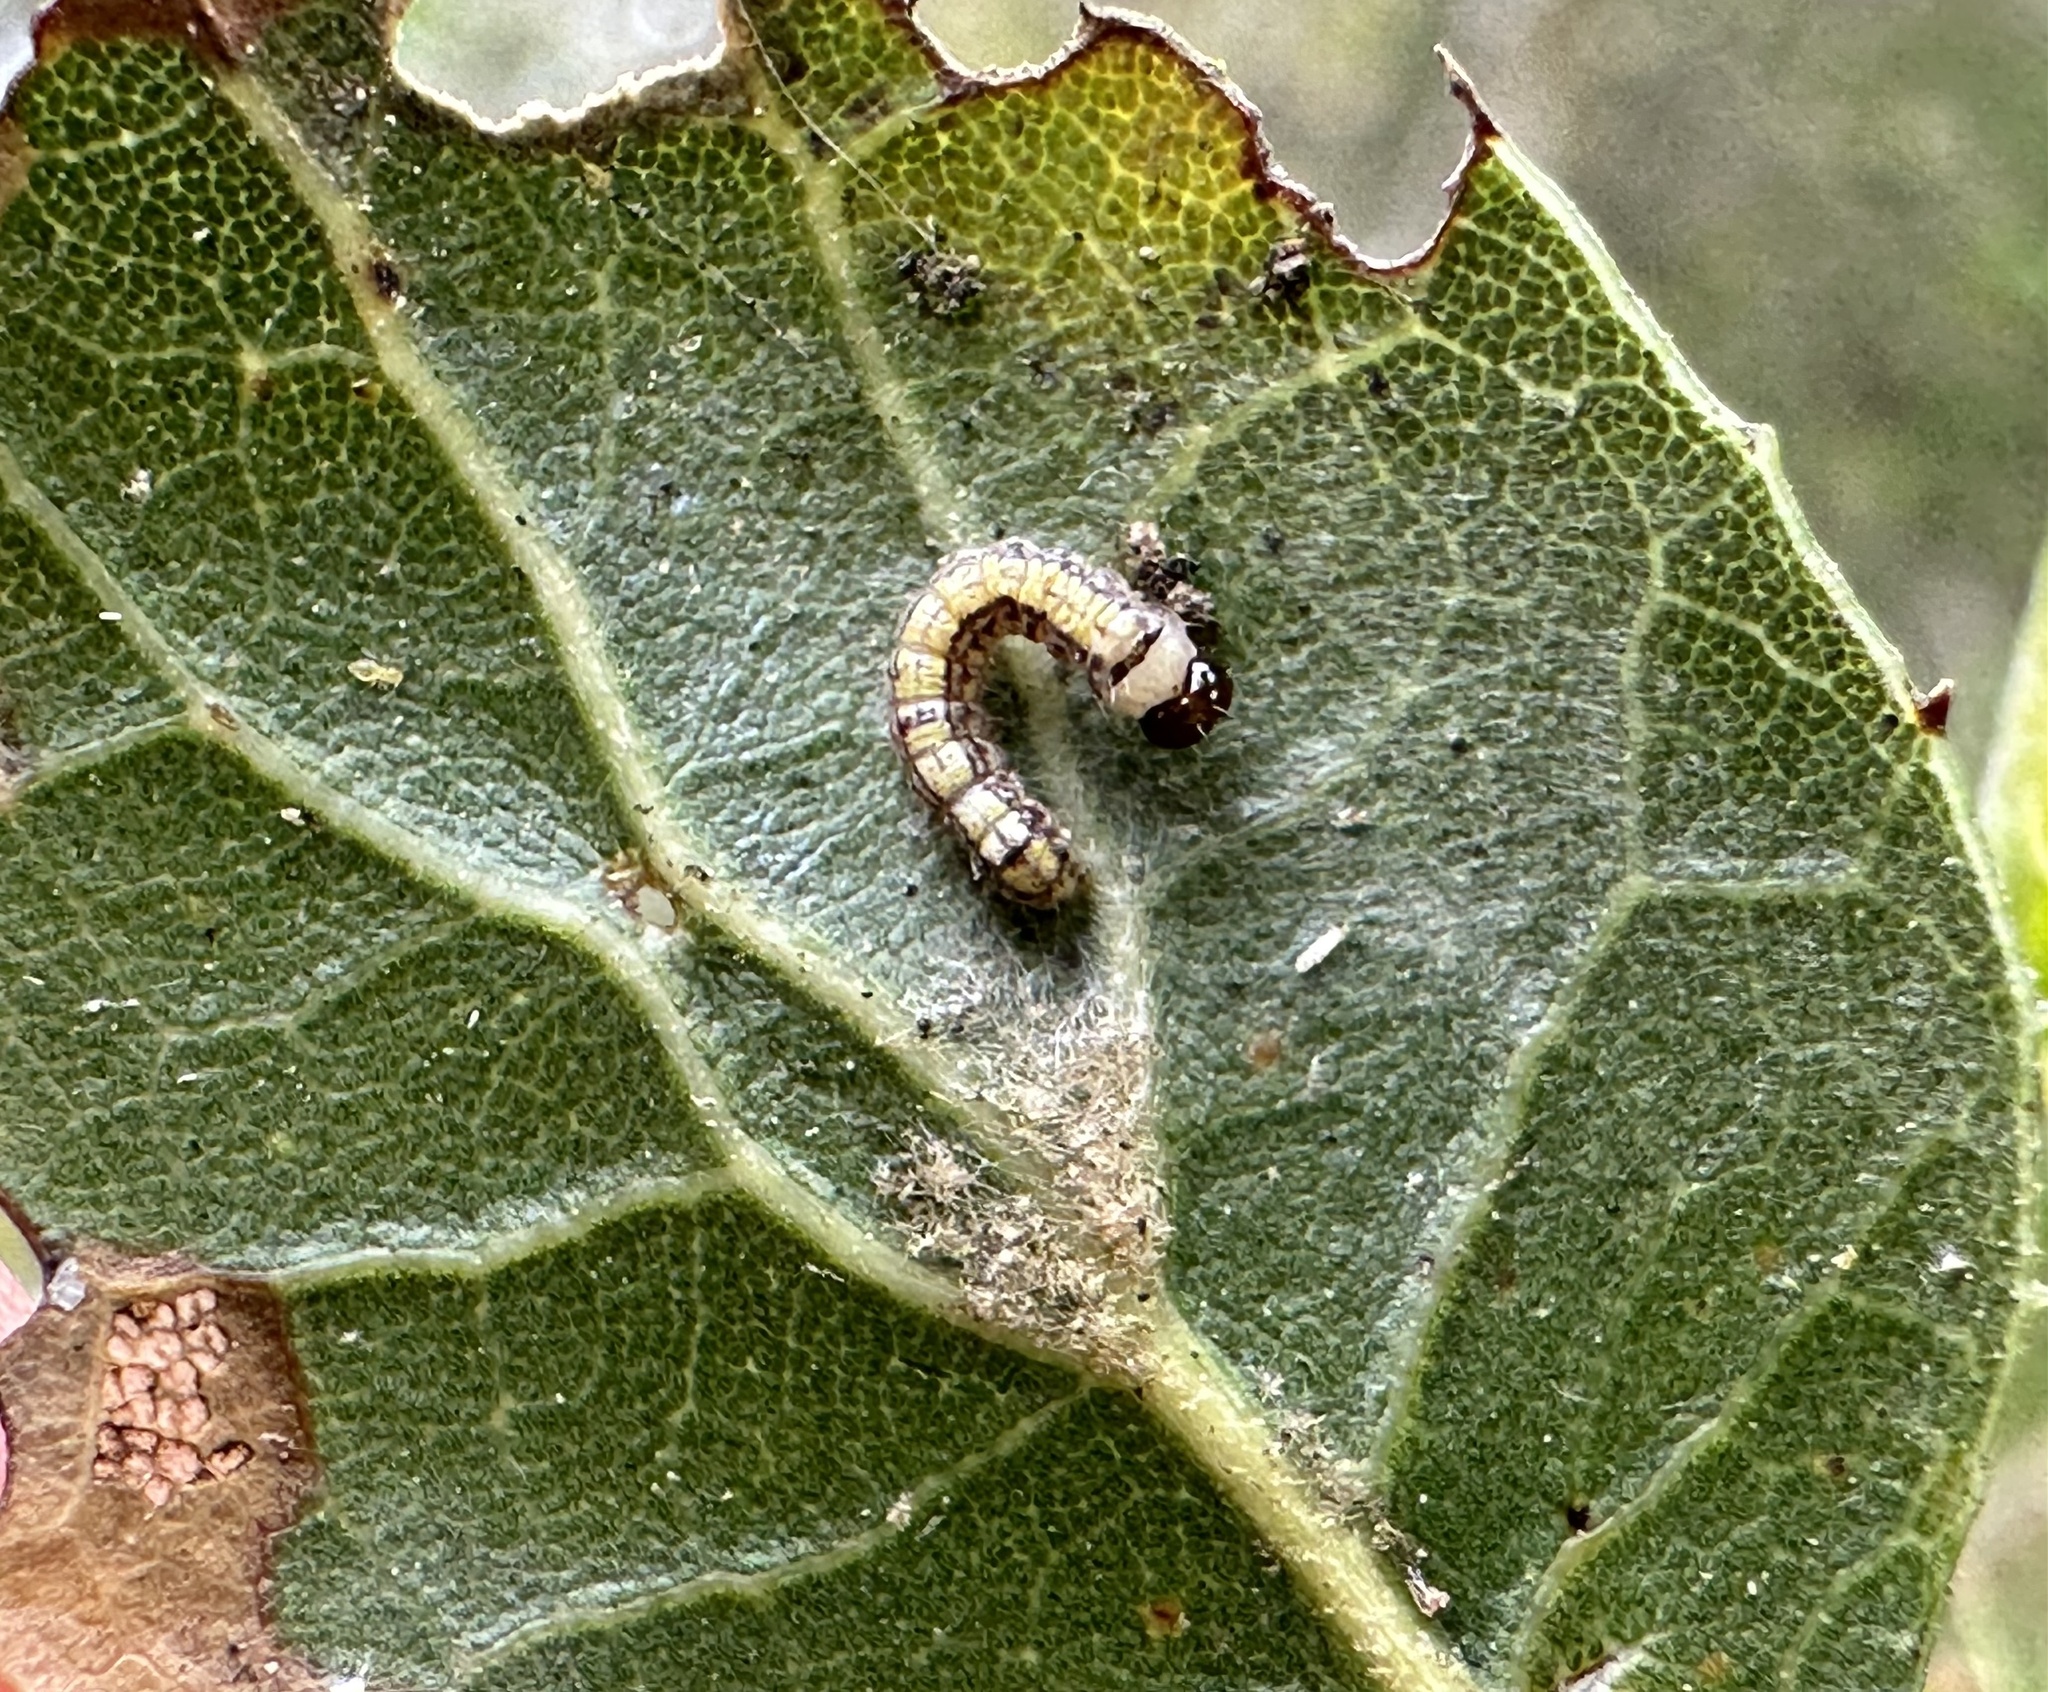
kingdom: Animalia
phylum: Arthropoda
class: Insecta
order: Lepidoptera
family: Notodontidae
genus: Phryganidia
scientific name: Phryganidia californica
